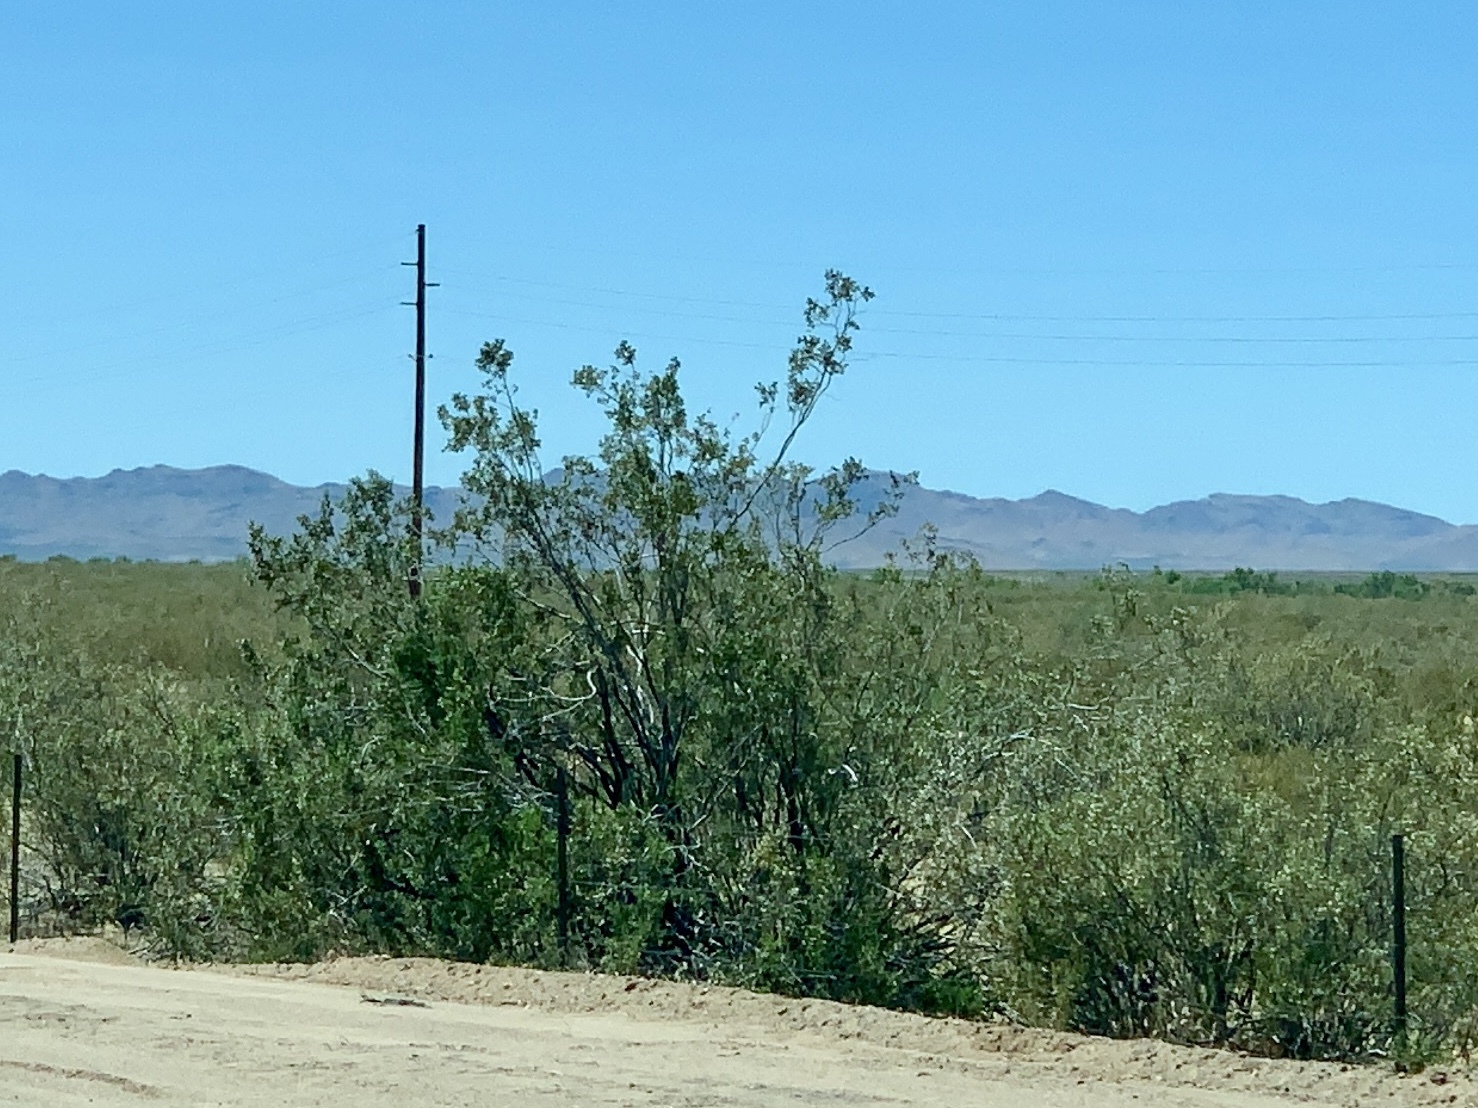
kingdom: Plantae
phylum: Tracheophyta
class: Magnoliopsida
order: Zygophyllales
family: Zygophyllaceae
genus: Larrea
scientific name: Larrea tridentata
